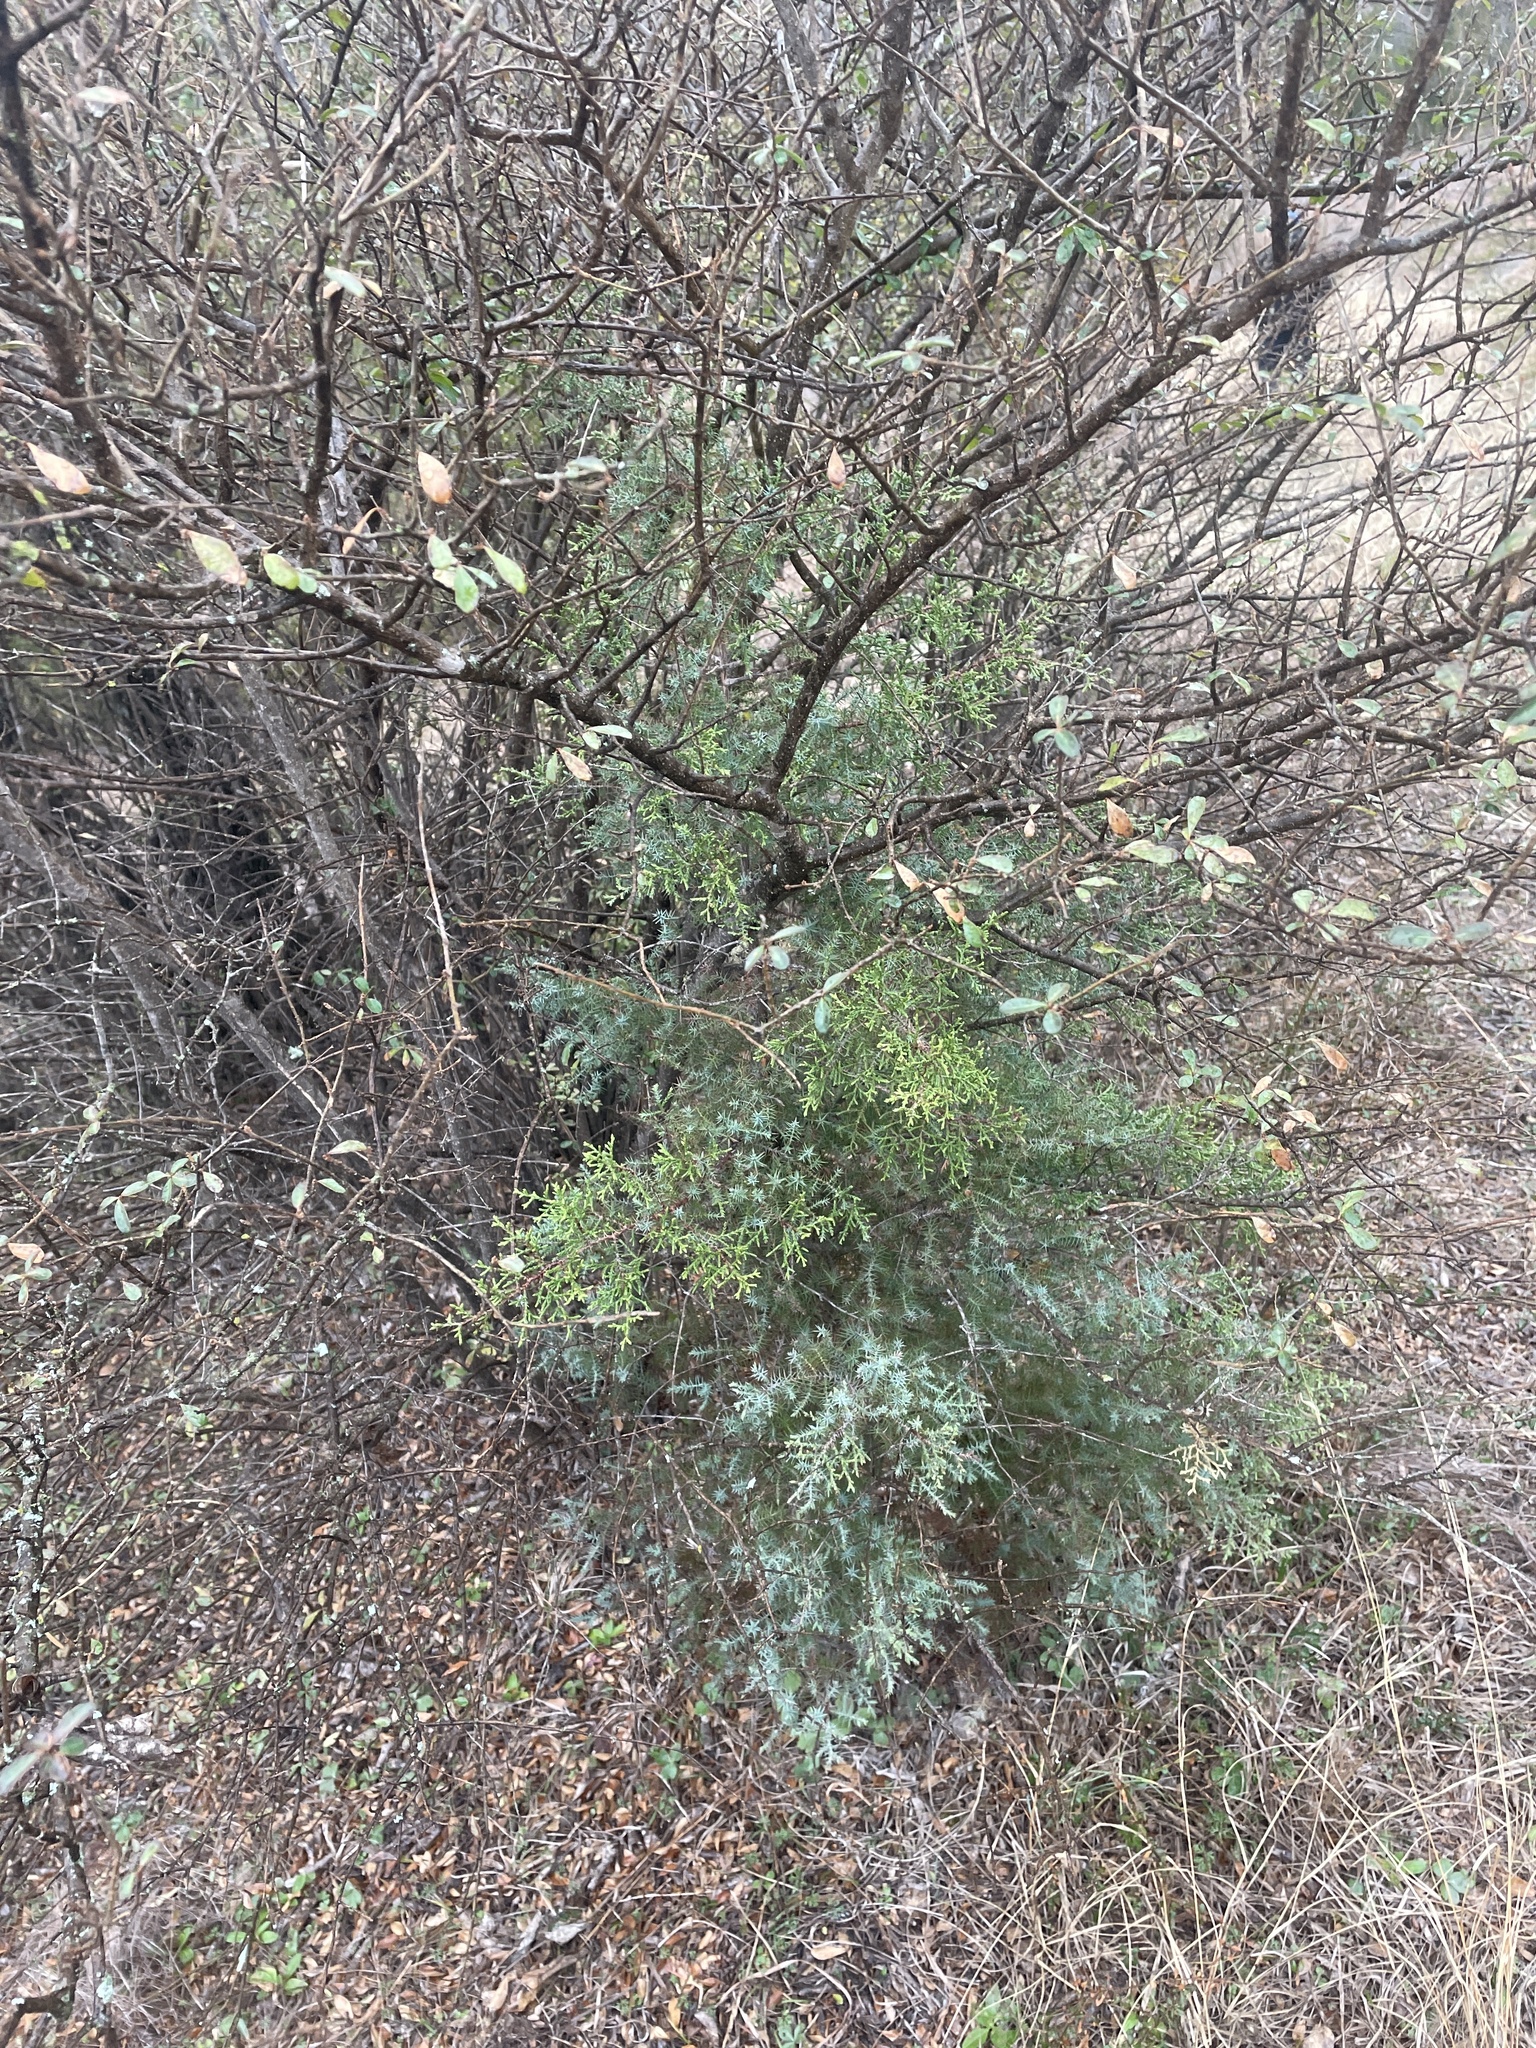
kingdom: Plantae
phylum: Tracheophyta
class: Pinopsida
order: Pinales
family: Cupressaceae
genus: Juniperus
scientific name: Juniperus virginiana
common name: Red juniper
